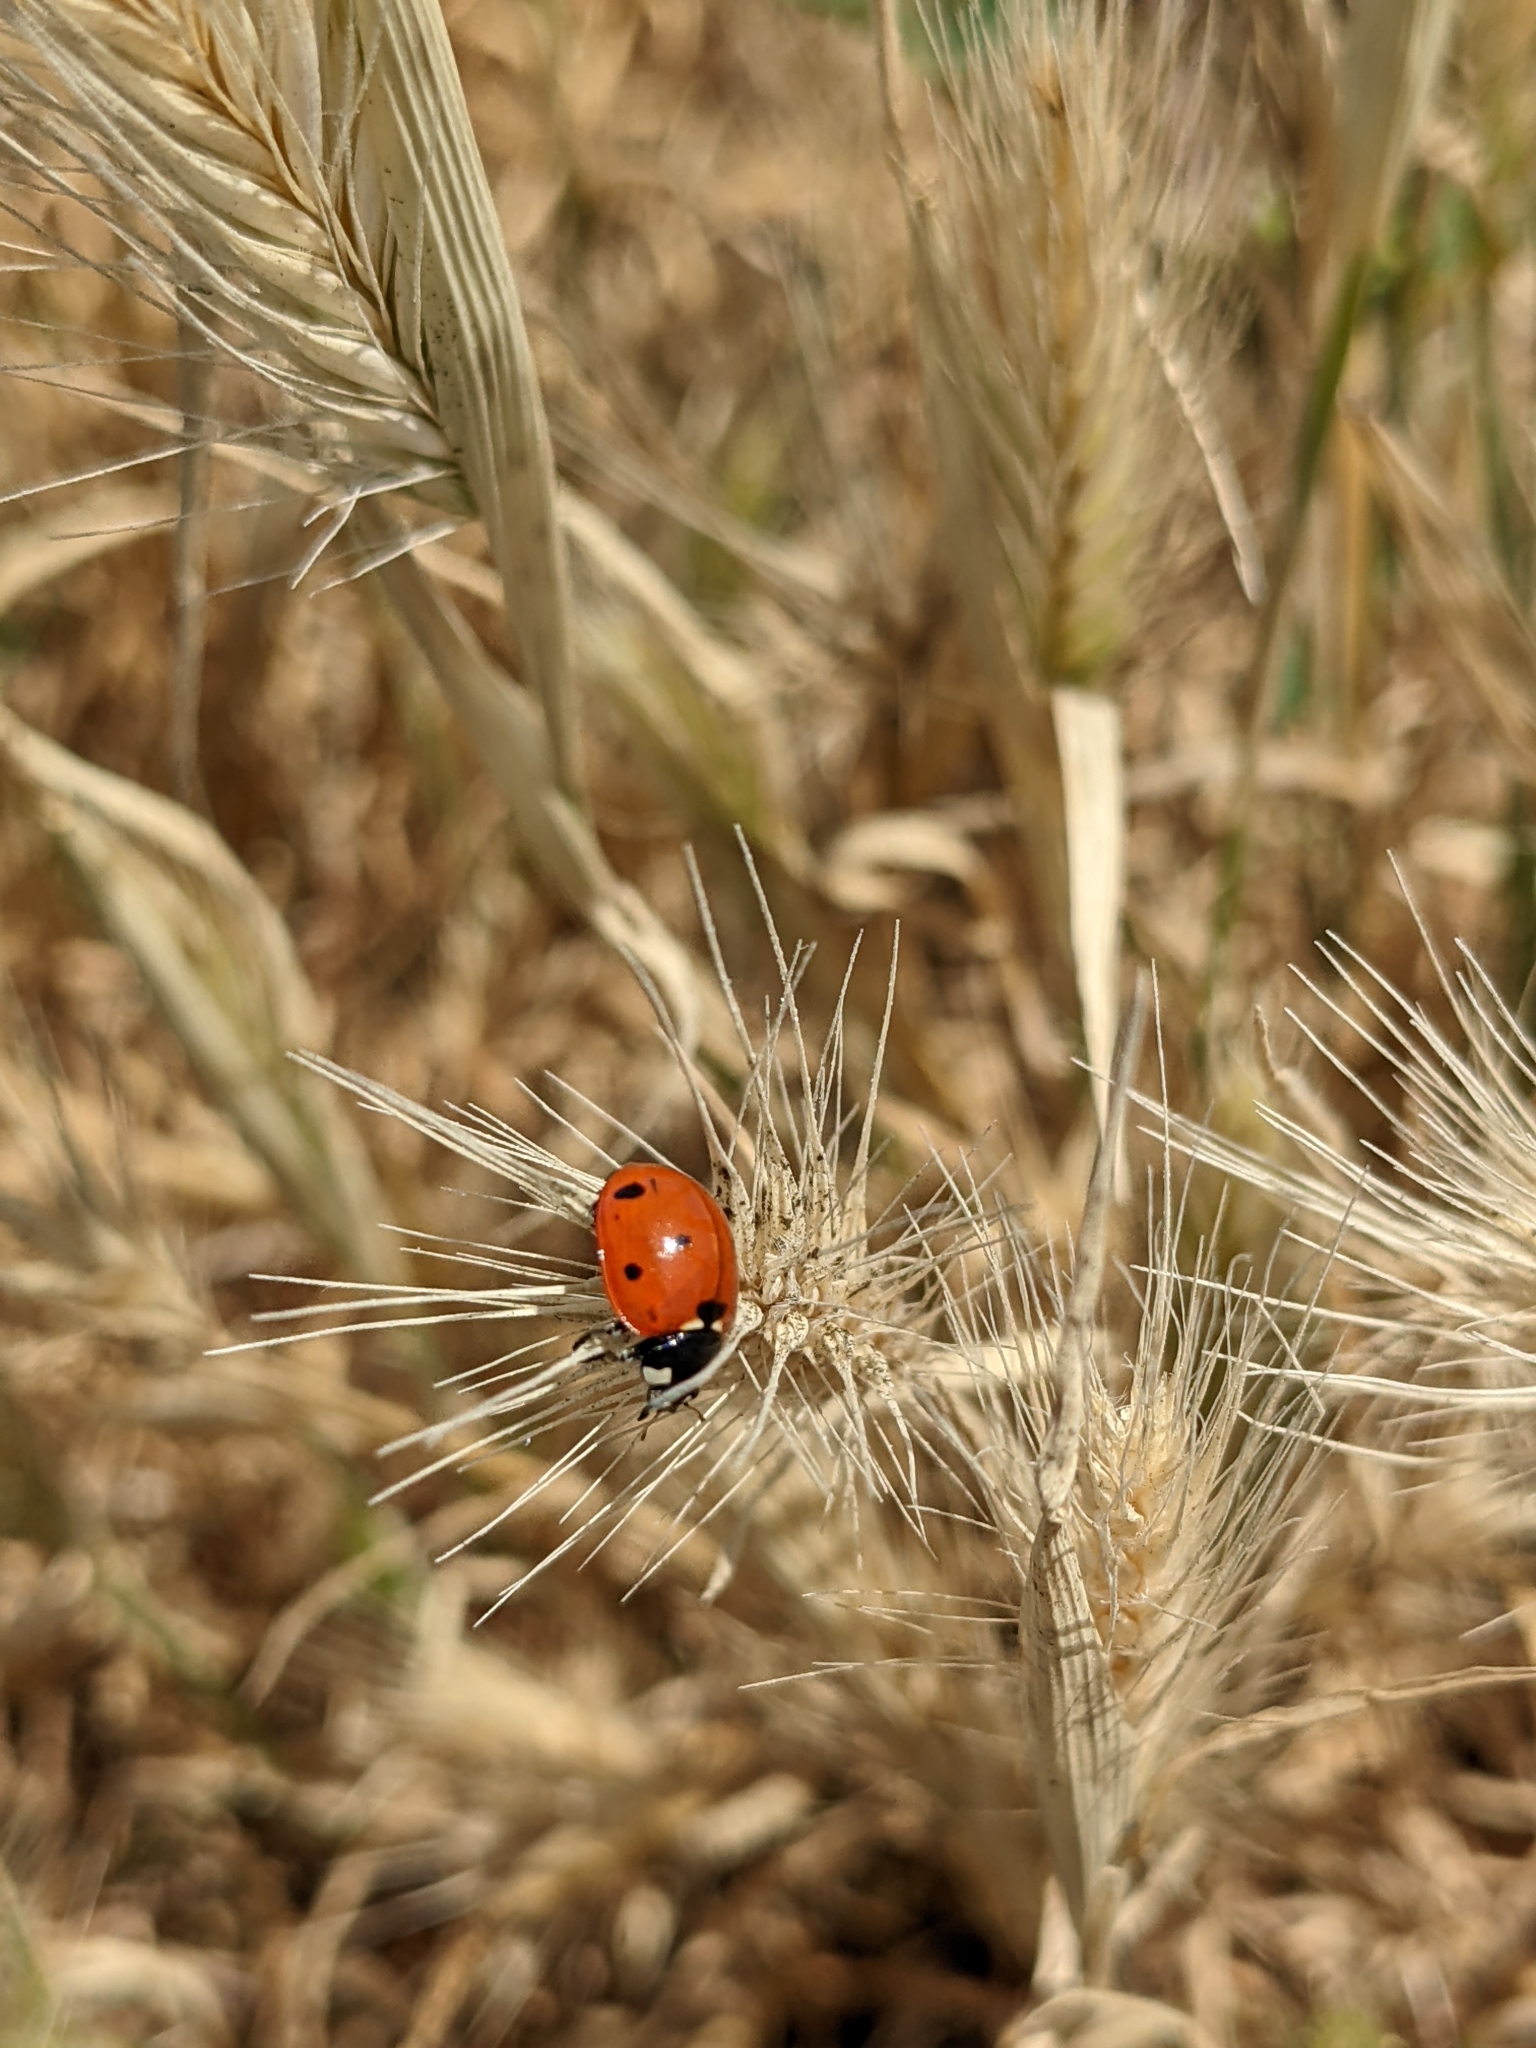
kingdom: Animalia
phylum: Arthropoda
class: Insecta
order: Coleoptera
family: Coccinellidae
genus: Coccinella
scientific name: Coccinella septempunctata
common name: Sevenspotted lady beetle
